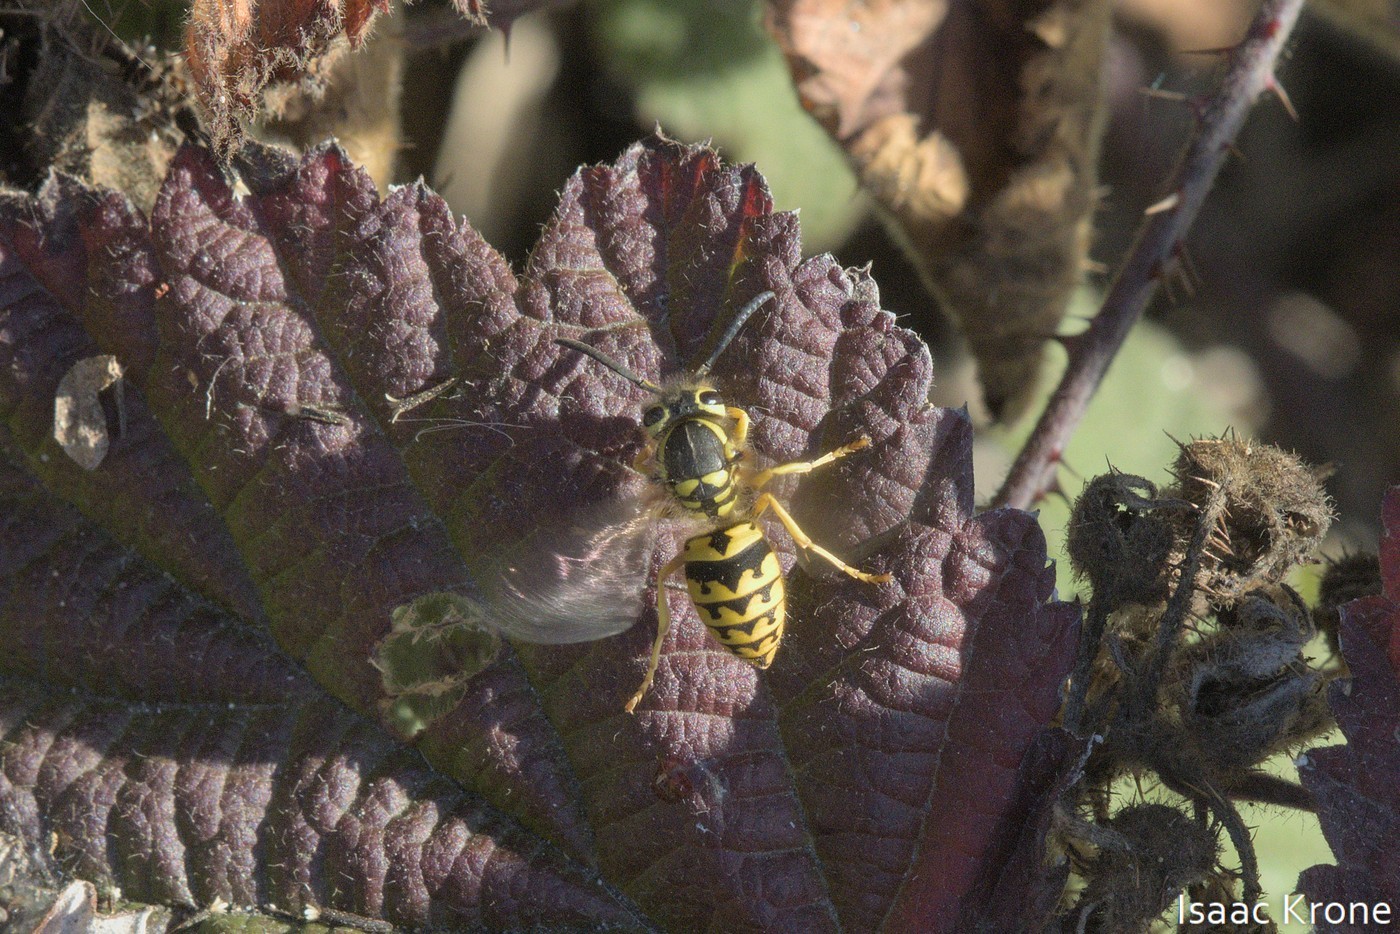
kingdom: Animalia
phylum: Arthropoda
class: Insecta
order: Hymenoptera
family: Vespidae
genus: Vespula
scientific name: Vespula pensylvanica
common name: Western yellowjacket
